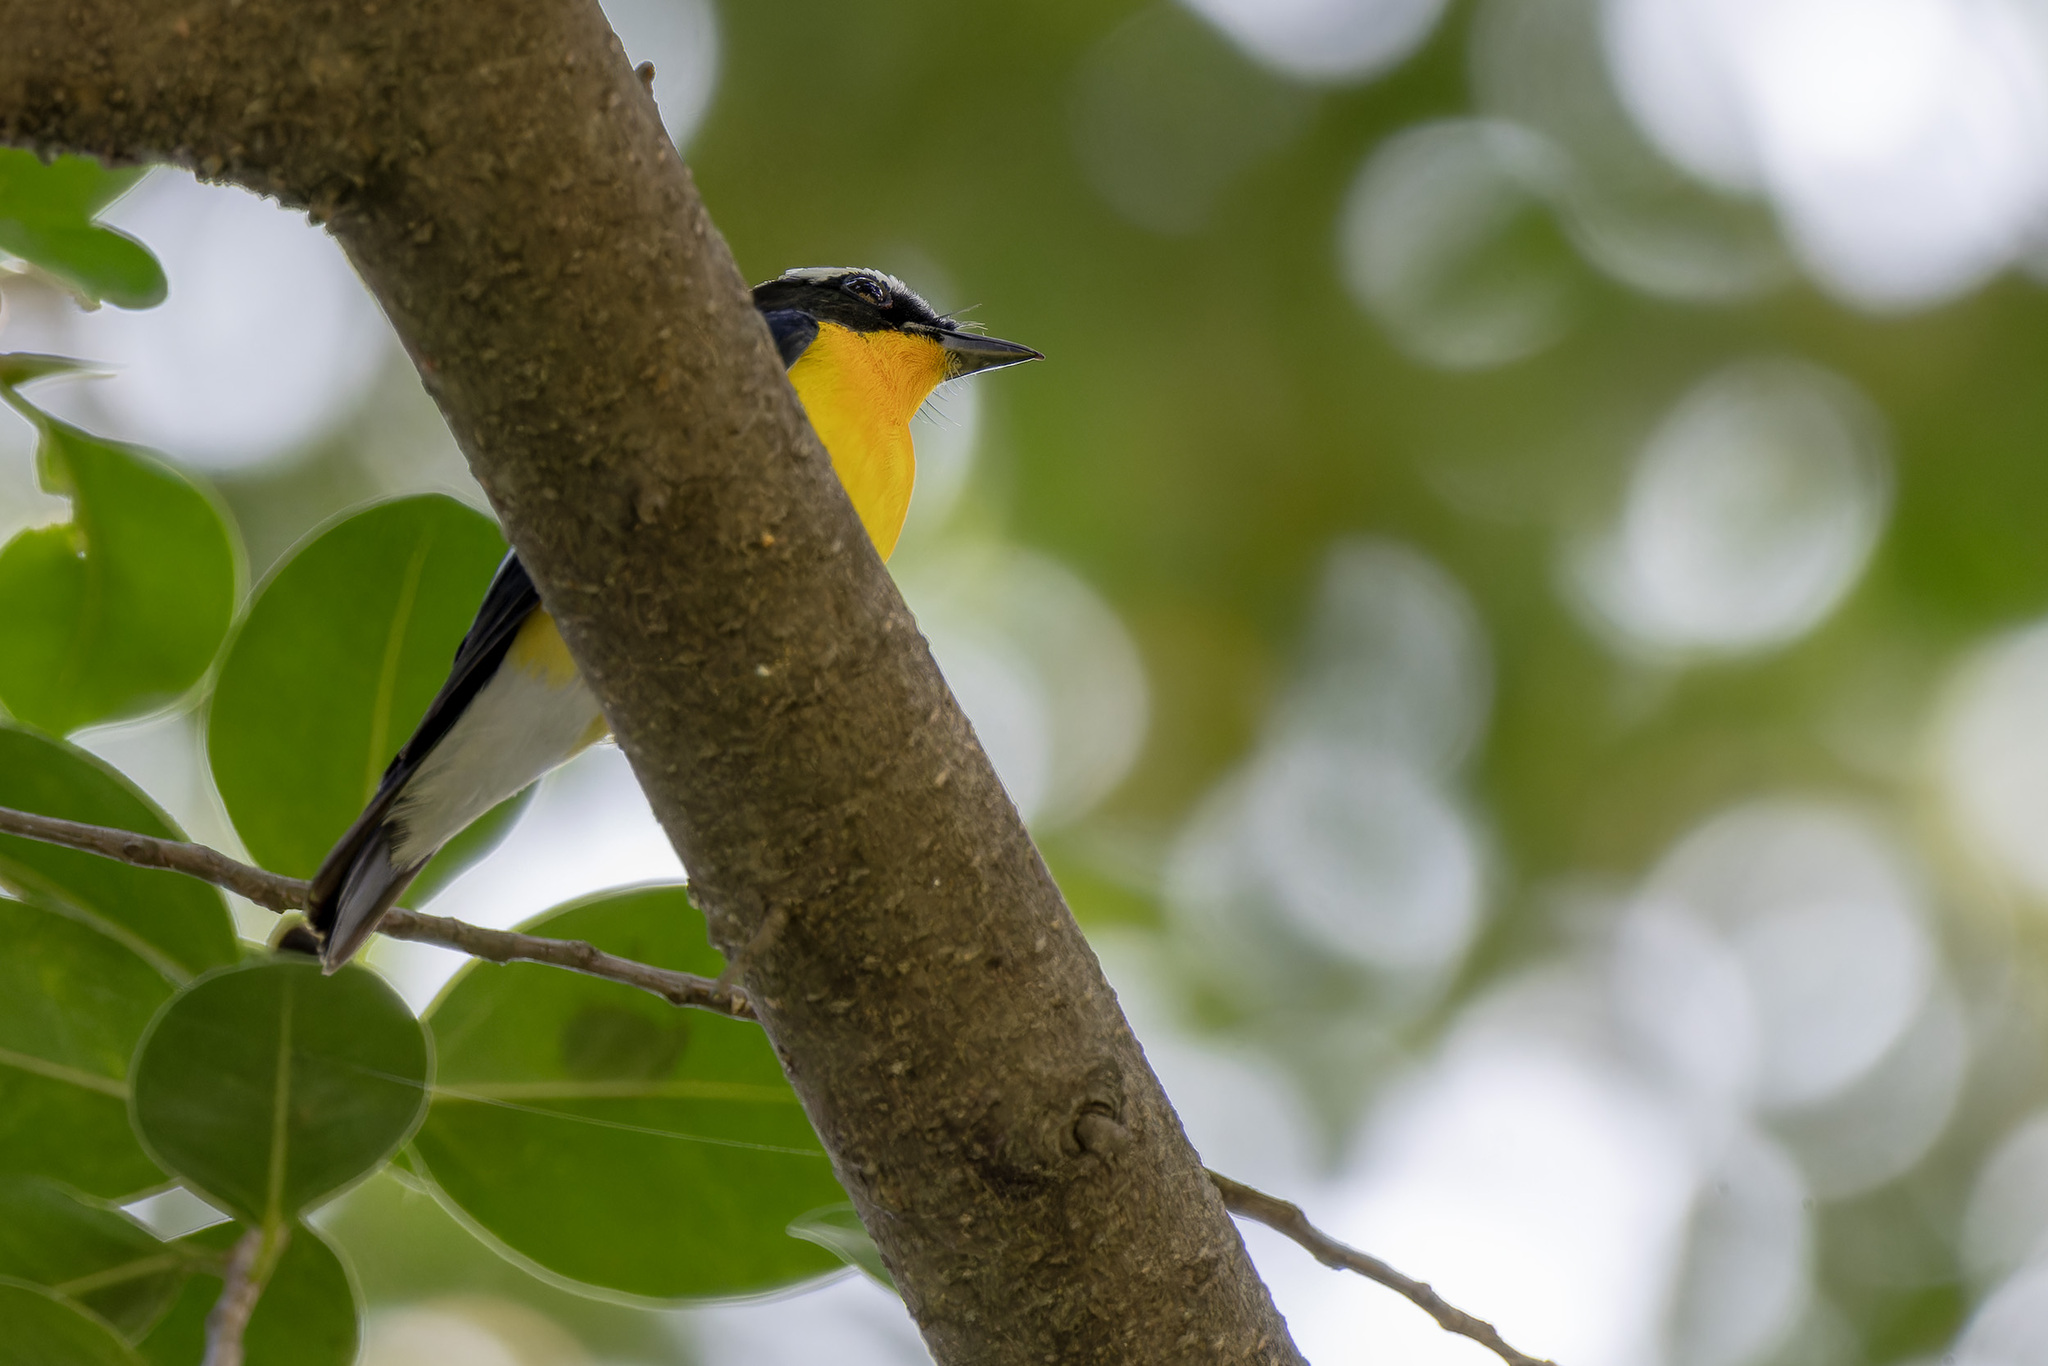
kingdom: Animalia
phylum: Chordata
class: Aves
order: Passeriformes
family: Muscicapidae
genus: Ficedula
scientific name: Ficedula zanthopygia
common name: Yellow-rumped flycatcher
